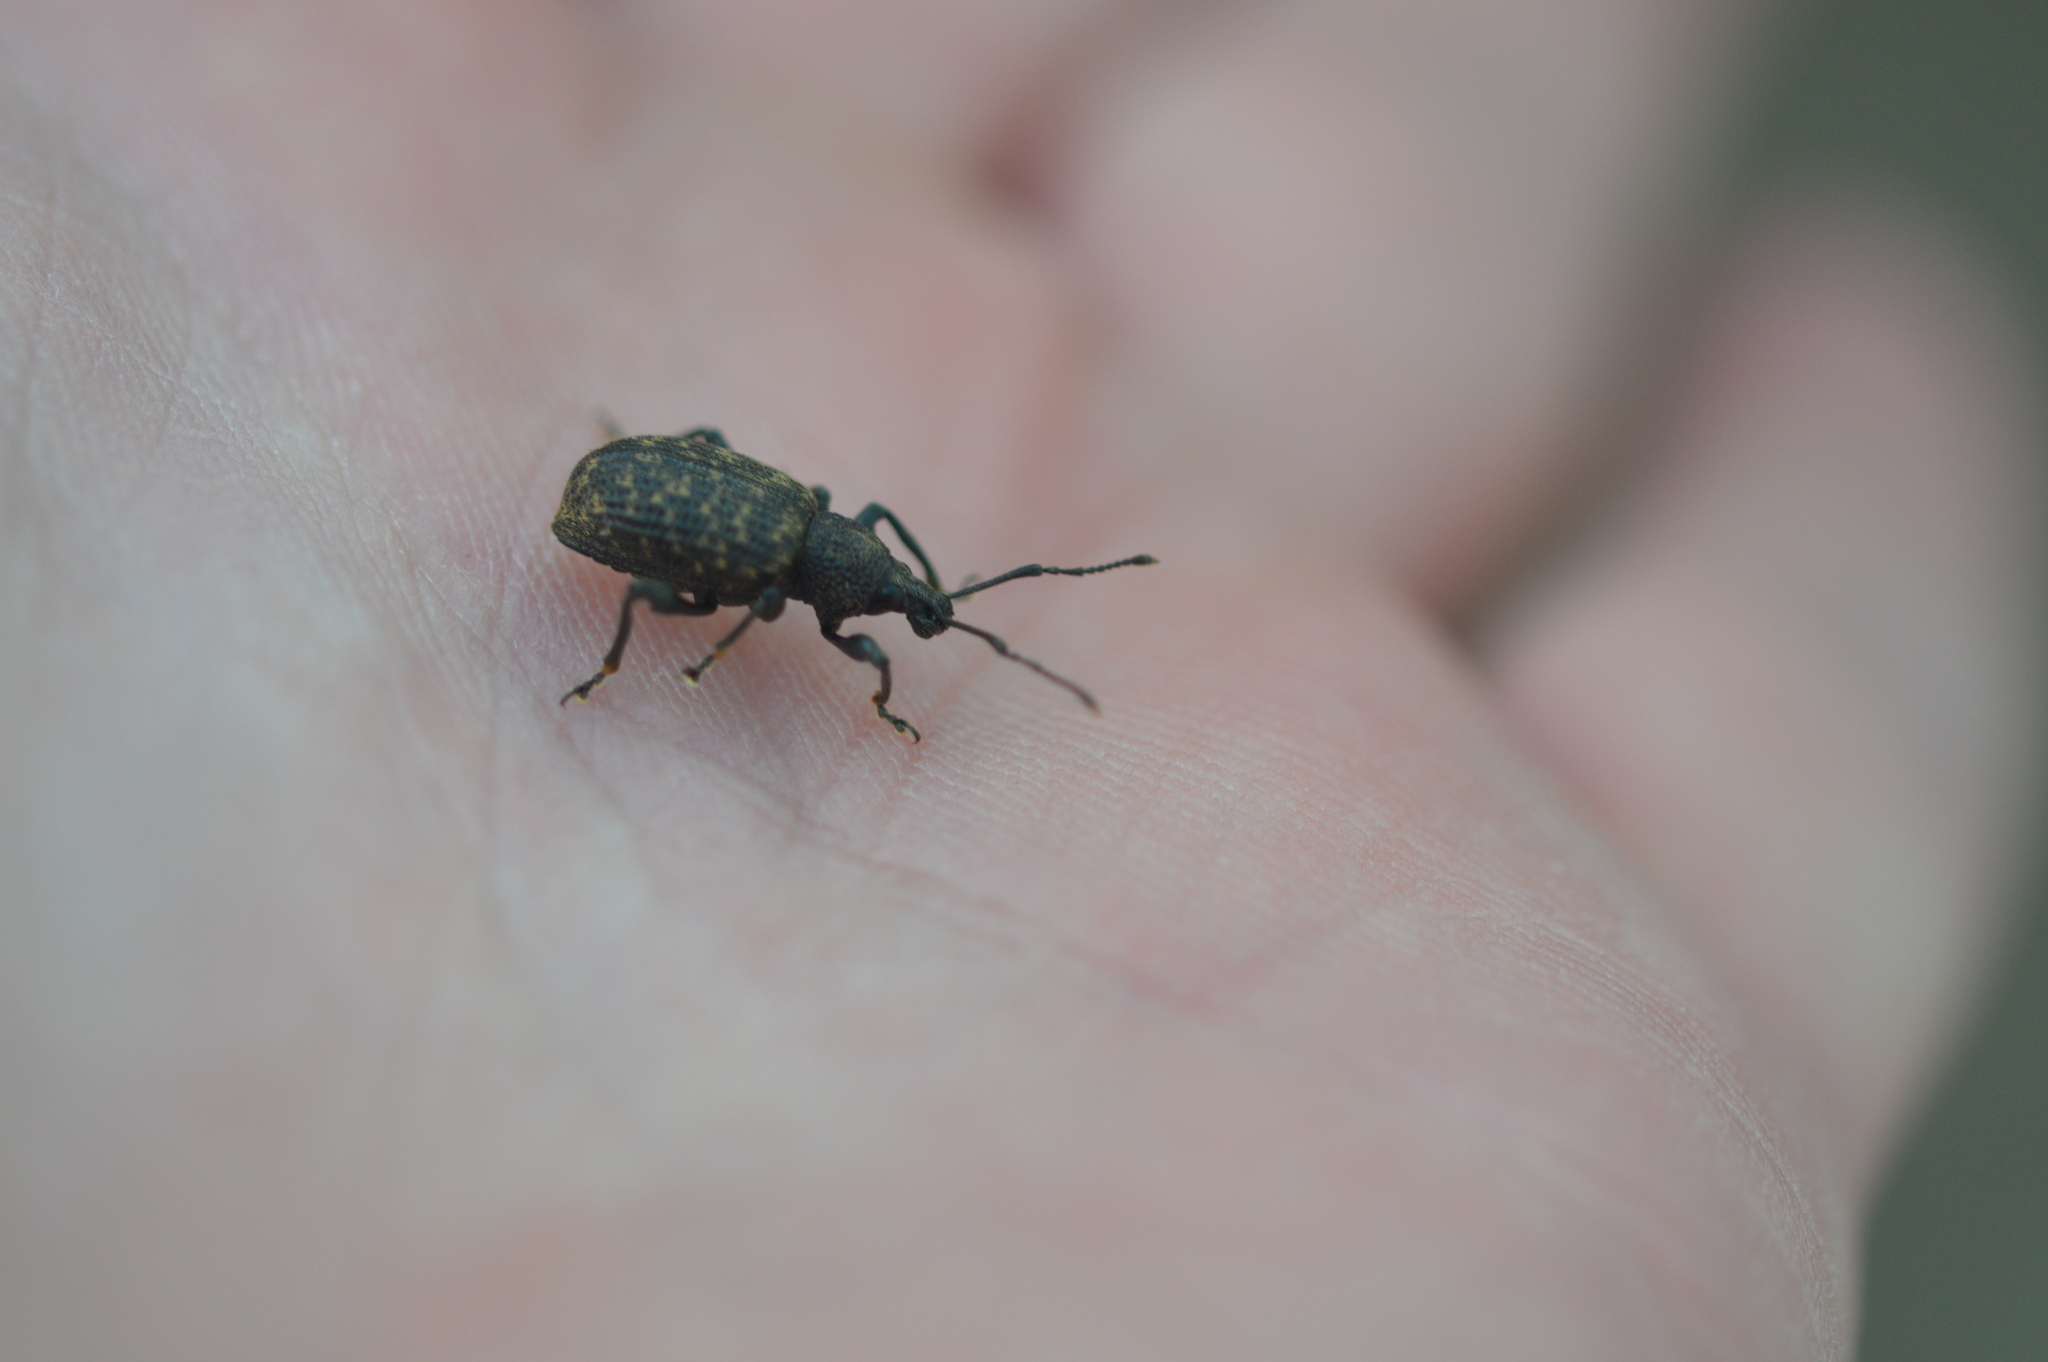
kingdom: Animalia
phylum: Arthropoda
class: Insecta
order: Coleoptera
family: Curculionidae
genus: Otiorhynchus
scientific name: Otiorhynchus sulcatus
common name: Black vine weevil
